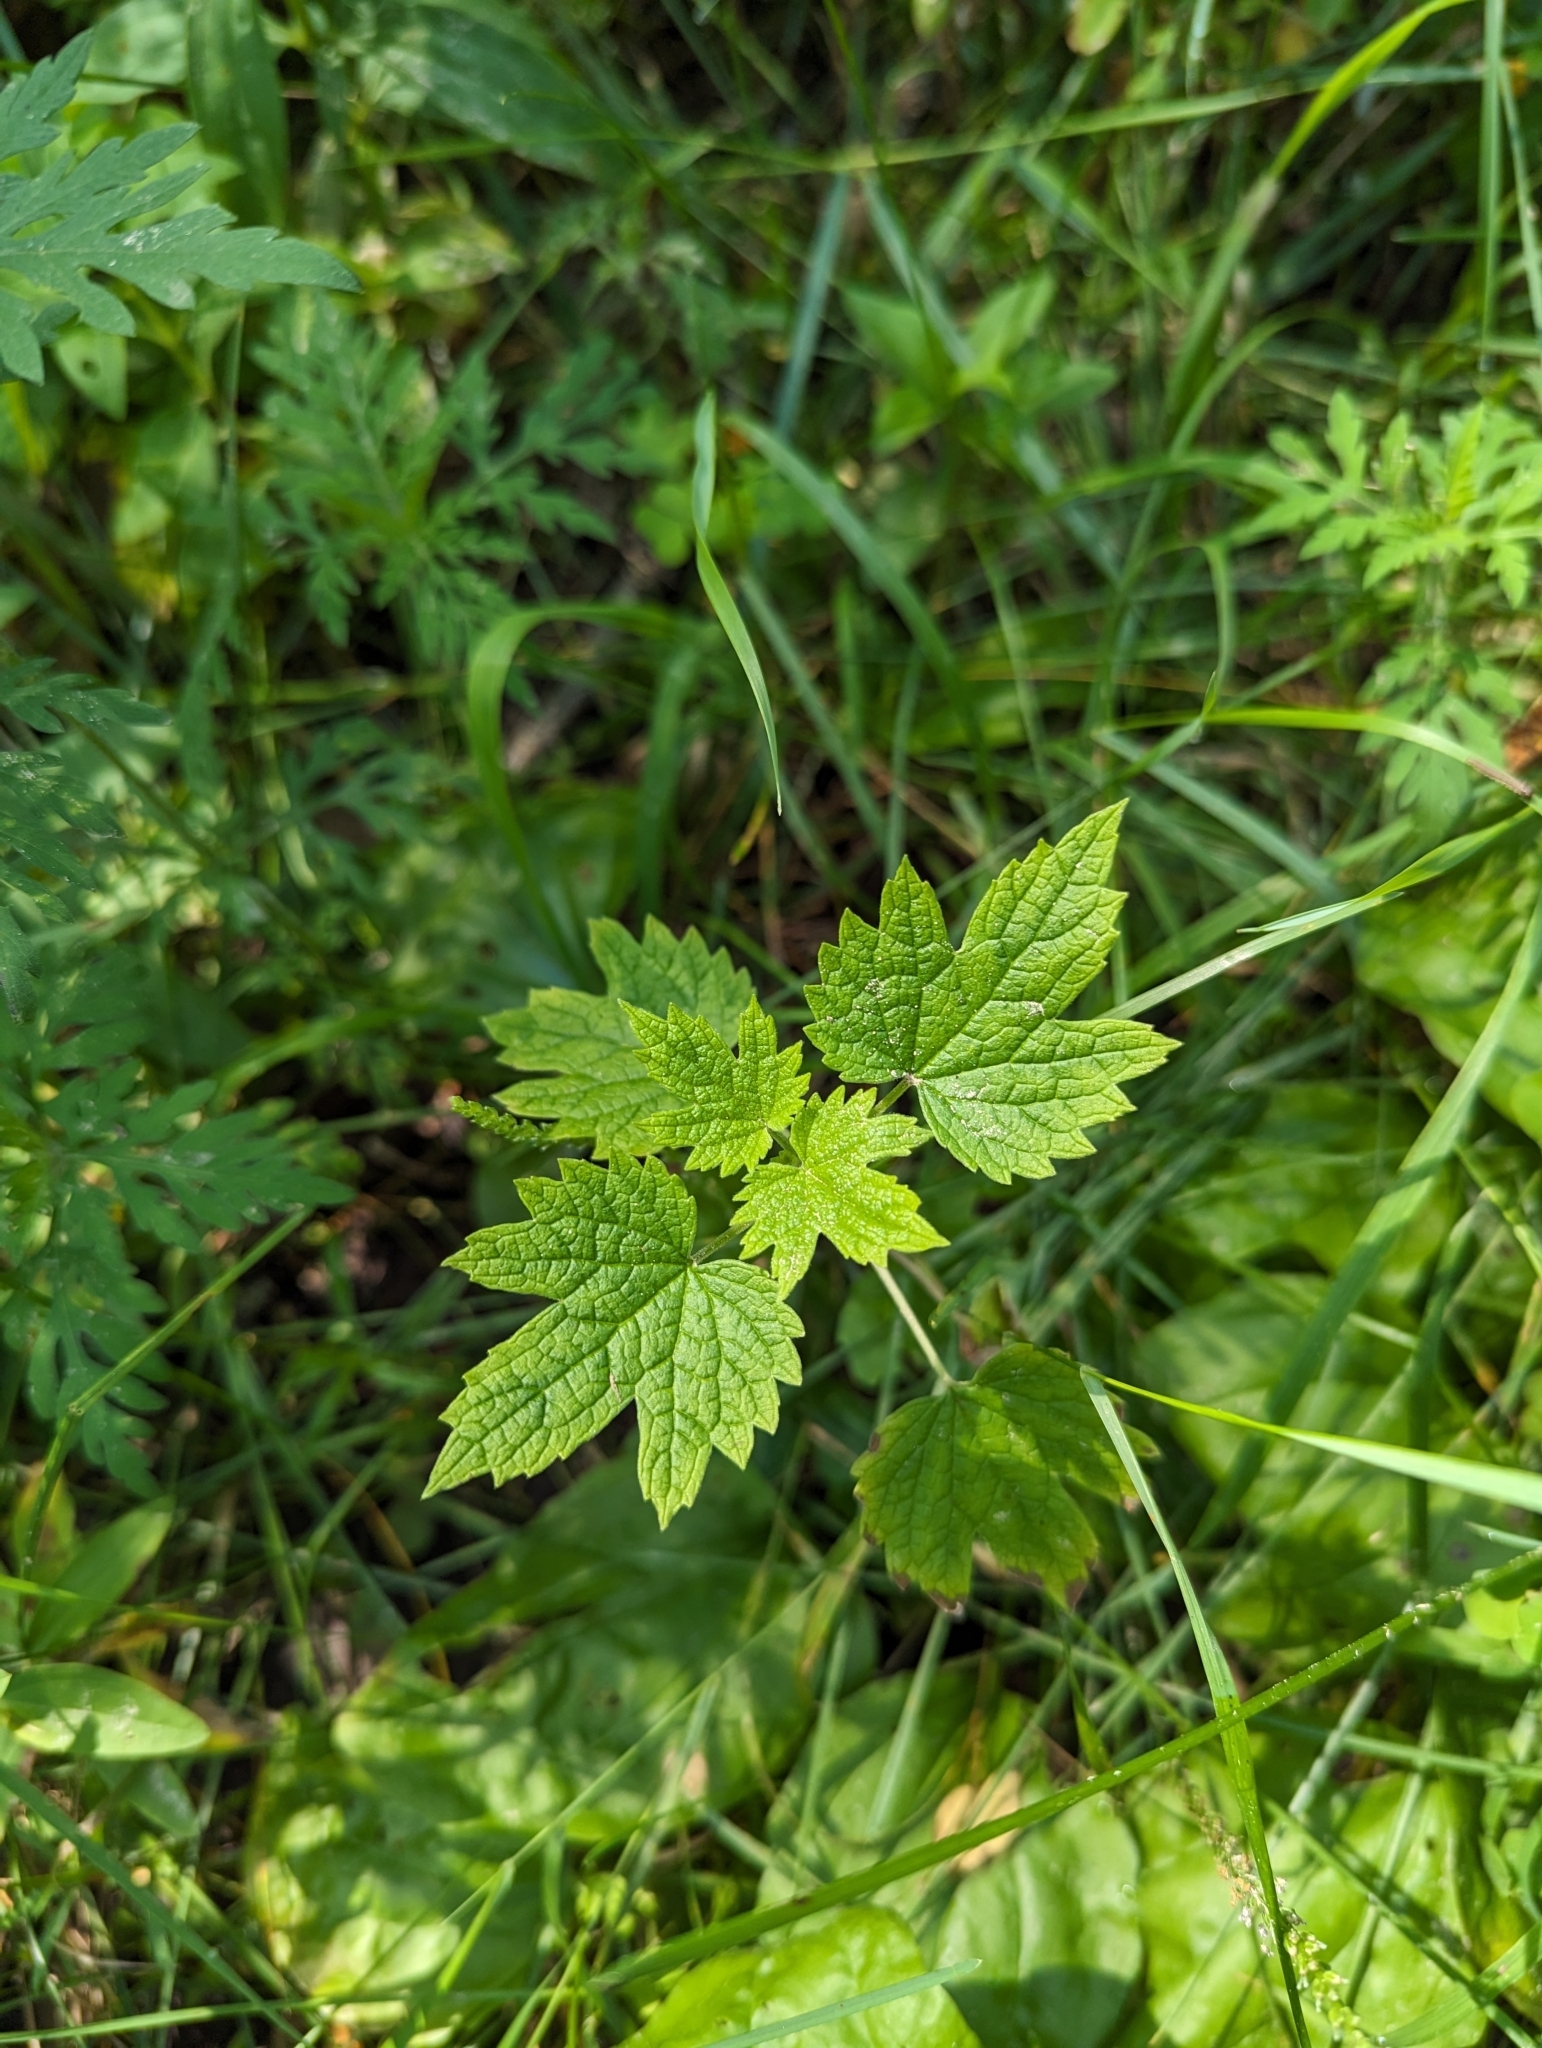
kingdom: Plantae
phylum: Tracheophyta
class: Magnoliopsida
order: Lamiales
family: Lamiaceae
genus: Leonurus
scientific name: Leonurus cardiaca
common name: Motherwort
